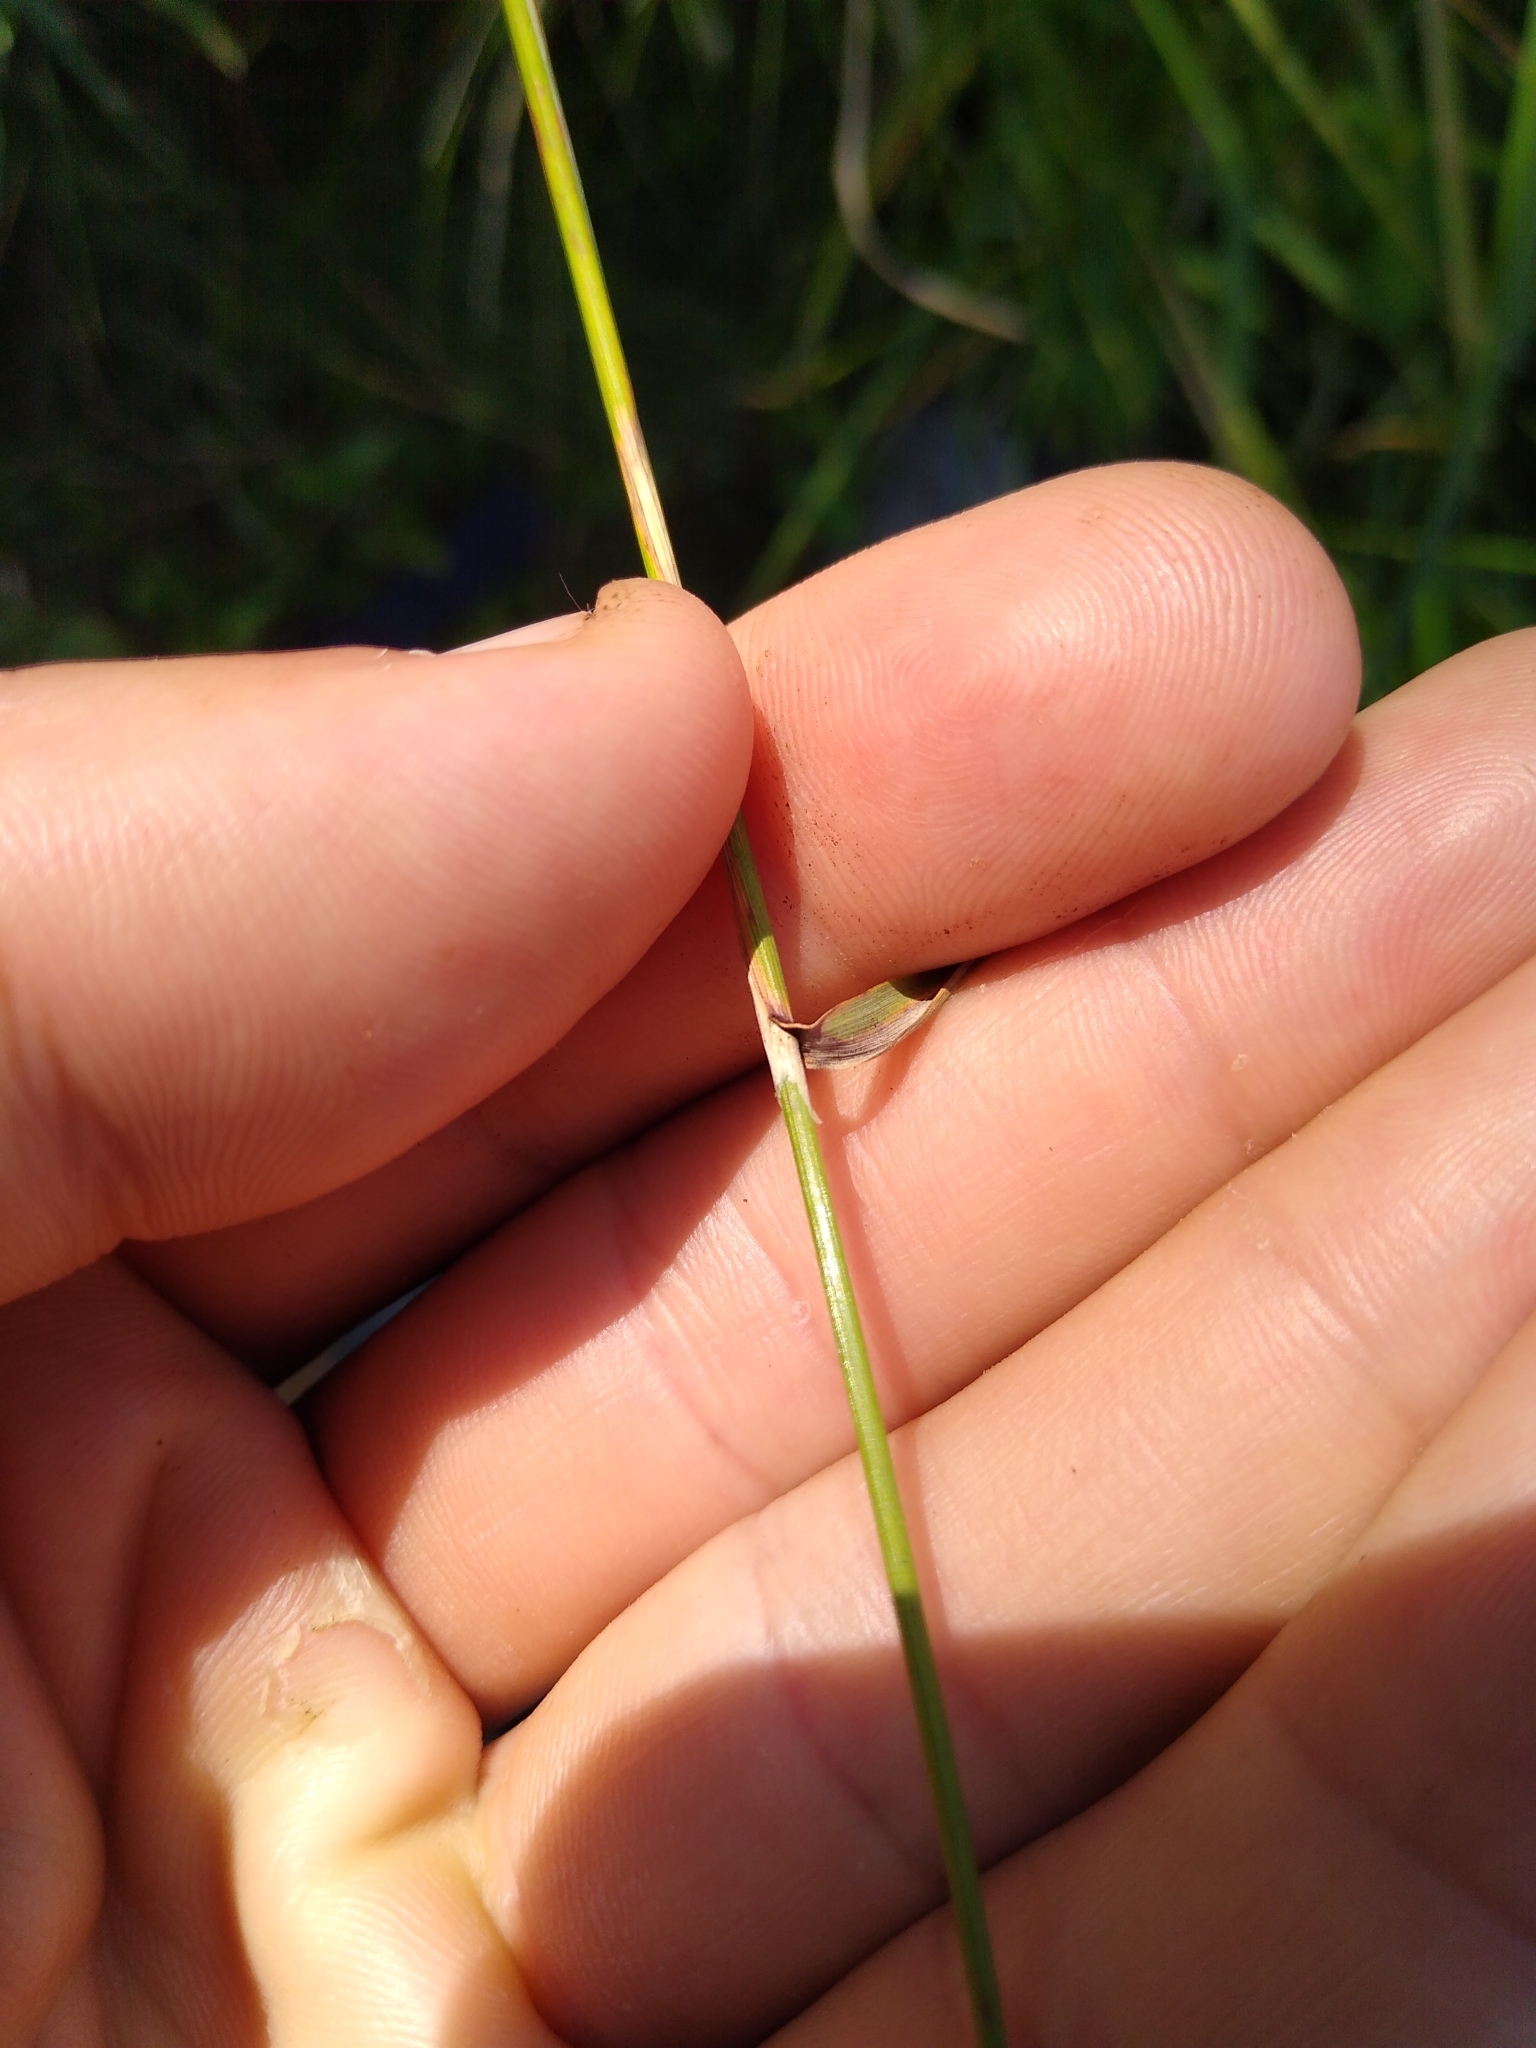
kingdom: Plantae
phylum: Tracheophyta
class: Liliopsida
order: Poales
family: Poaceae
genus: Calamagrostis
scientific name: Calamagrostis canadensis
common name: Canada bluejoint
